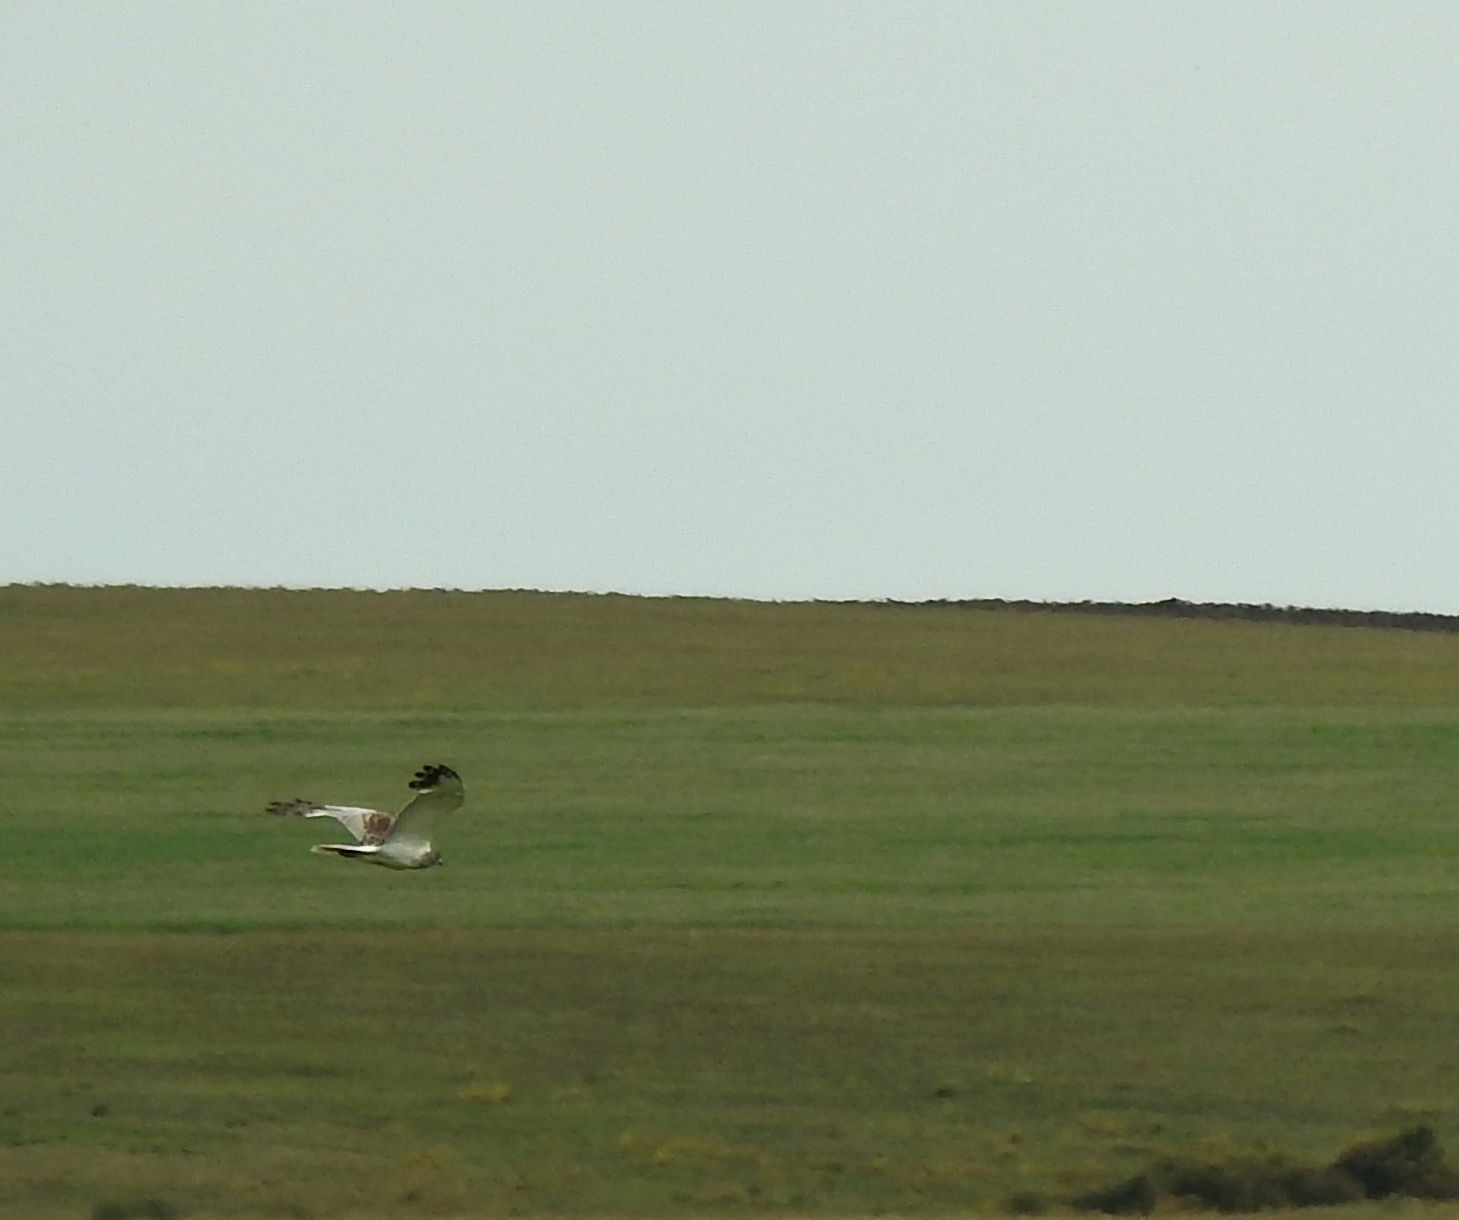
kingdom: Animalia
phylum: Chordata
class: Aves
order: Accipitriformes
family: Accipitridae
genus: Circus
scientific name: Circus cyaneus
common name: Hen harrier
